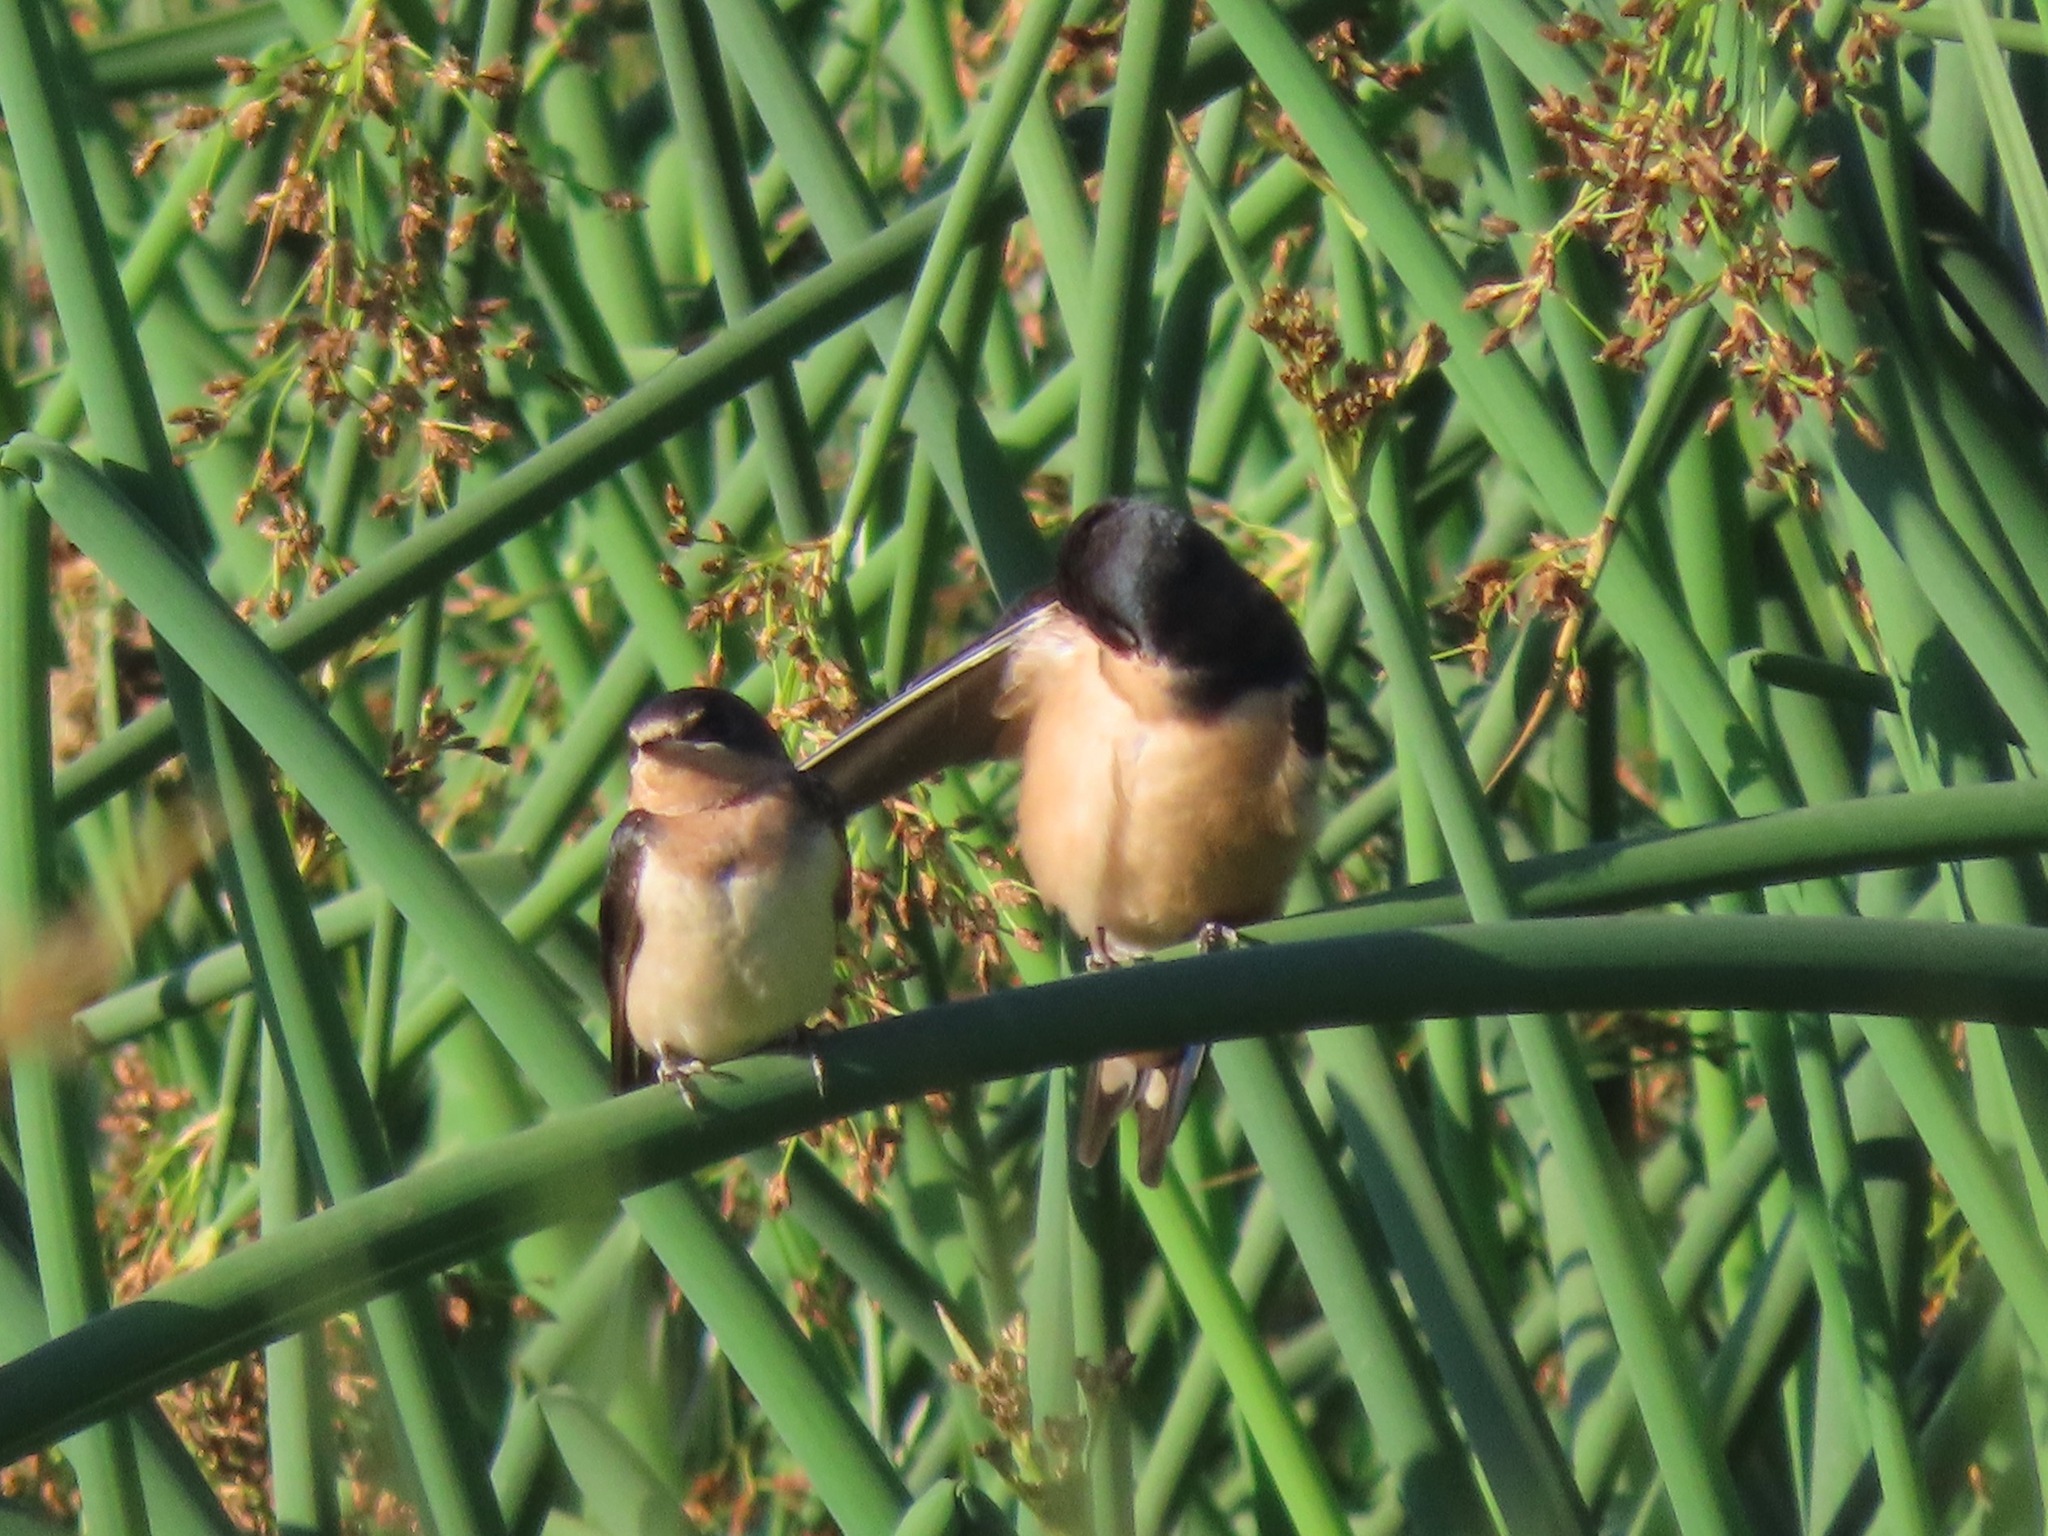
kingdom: Animalia
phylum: Chordata
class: Aves
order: Passeriformes
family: Hirundinidae
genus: Hirundo
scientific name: Hirundo rustica
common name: Barn swallow
